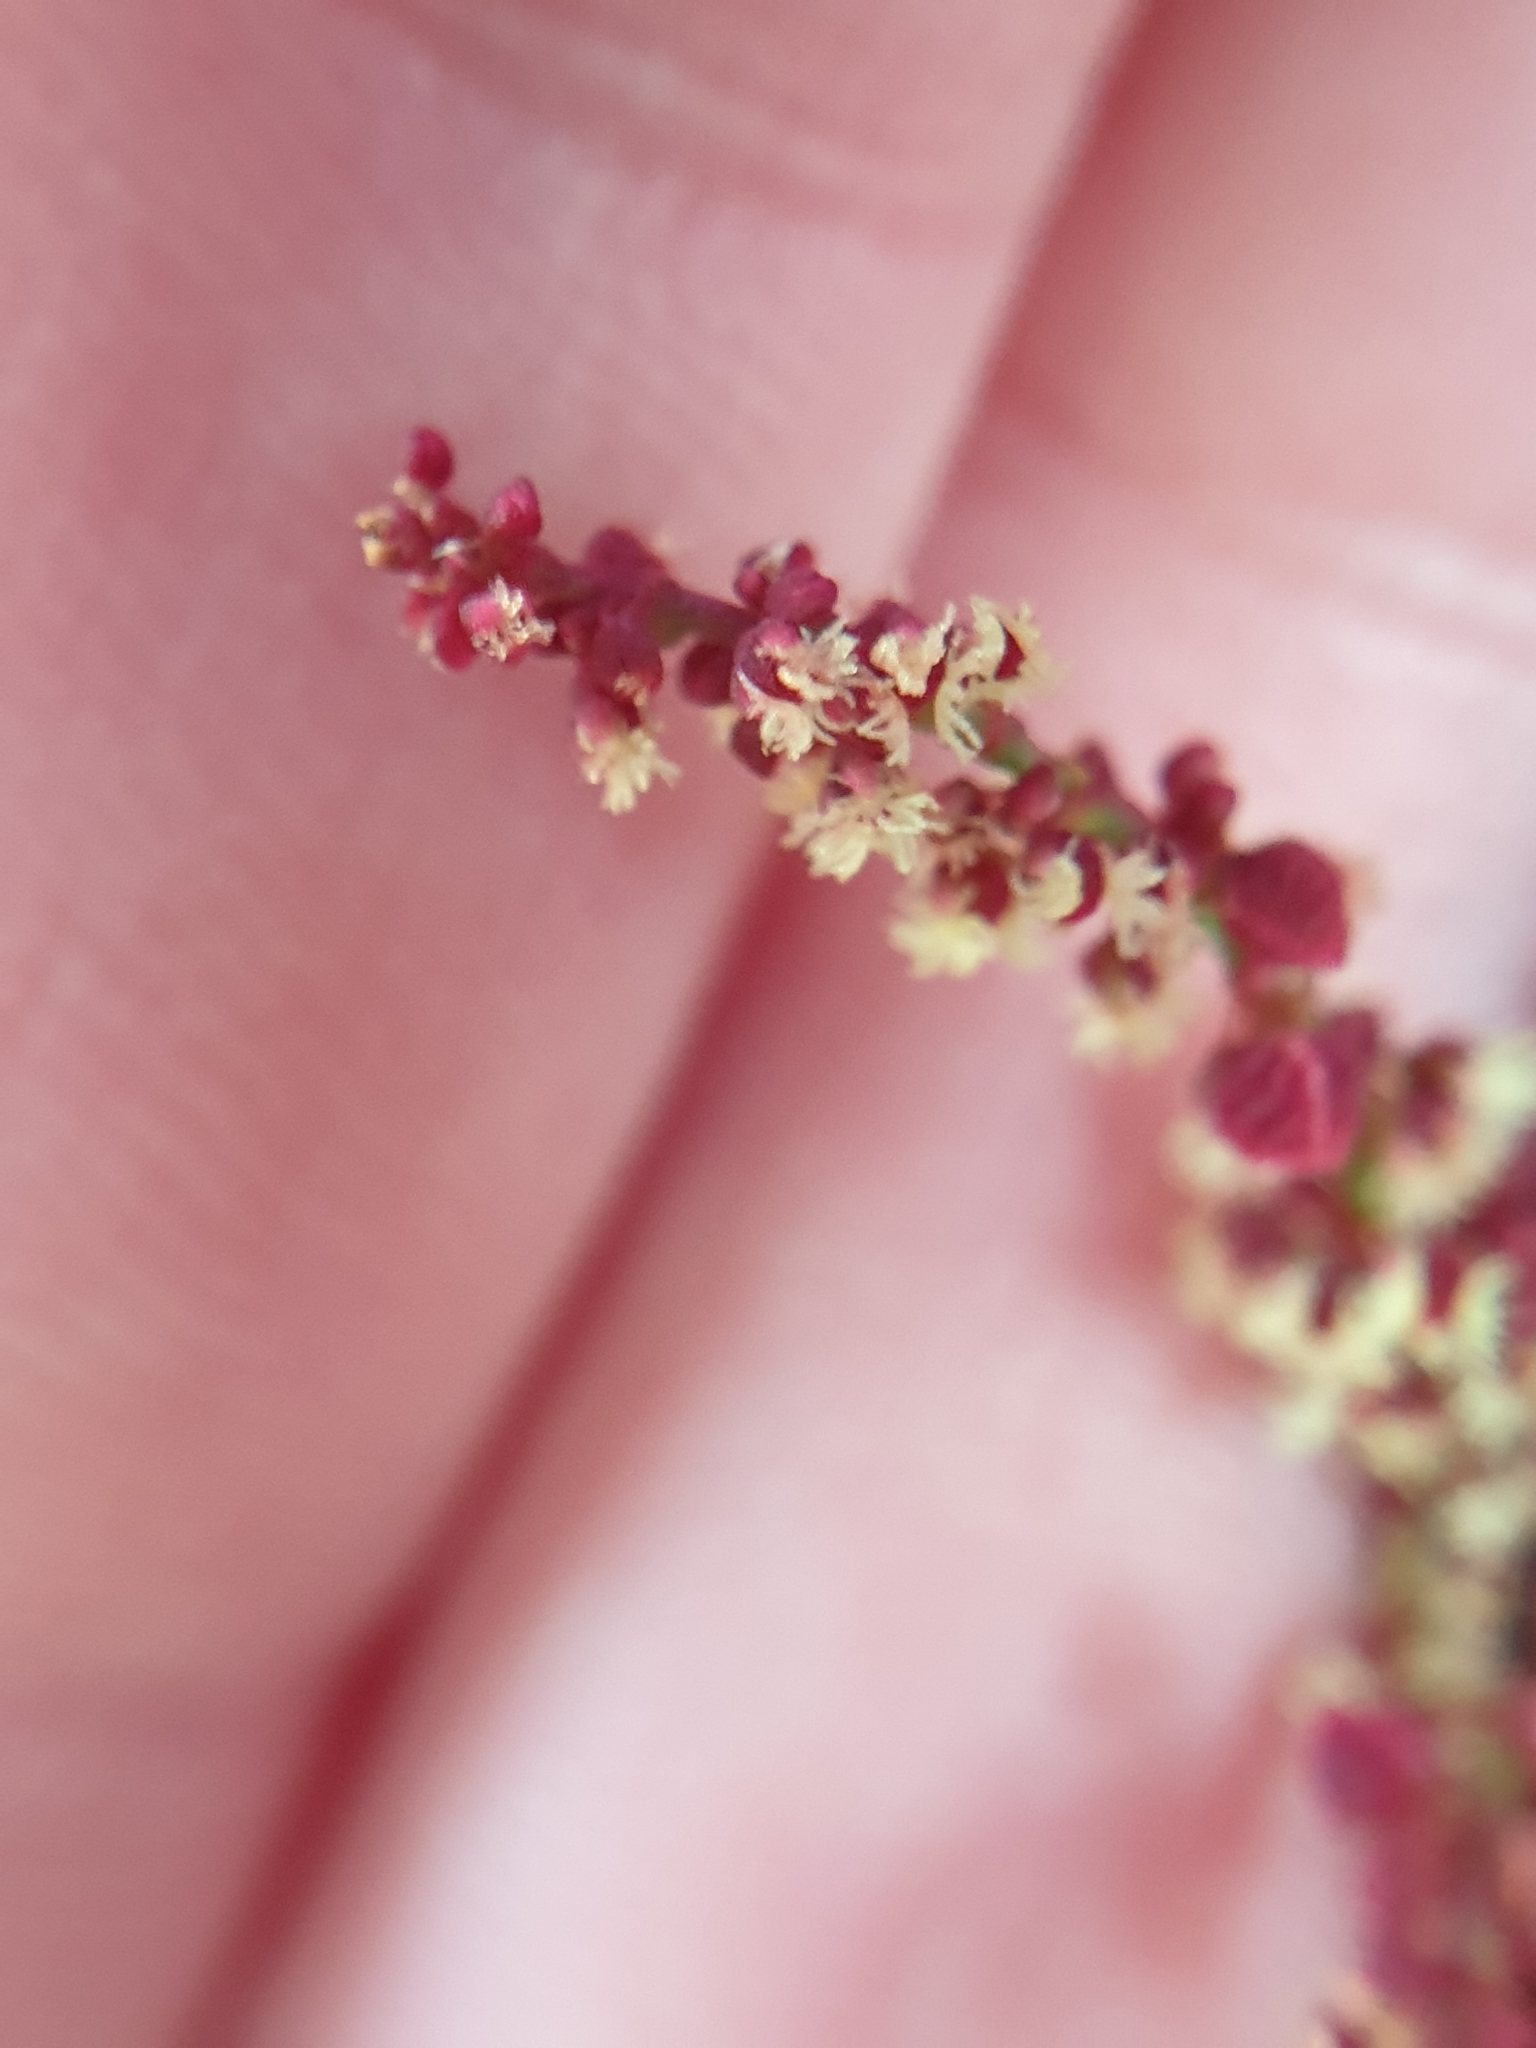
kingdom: Plantae
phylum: Tracheophyta
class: Magnoliopsida
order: Caryophyllales
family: Polygonaceae
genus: Rumex
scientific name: Rumex acetosella
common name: Common sheep sorrel
